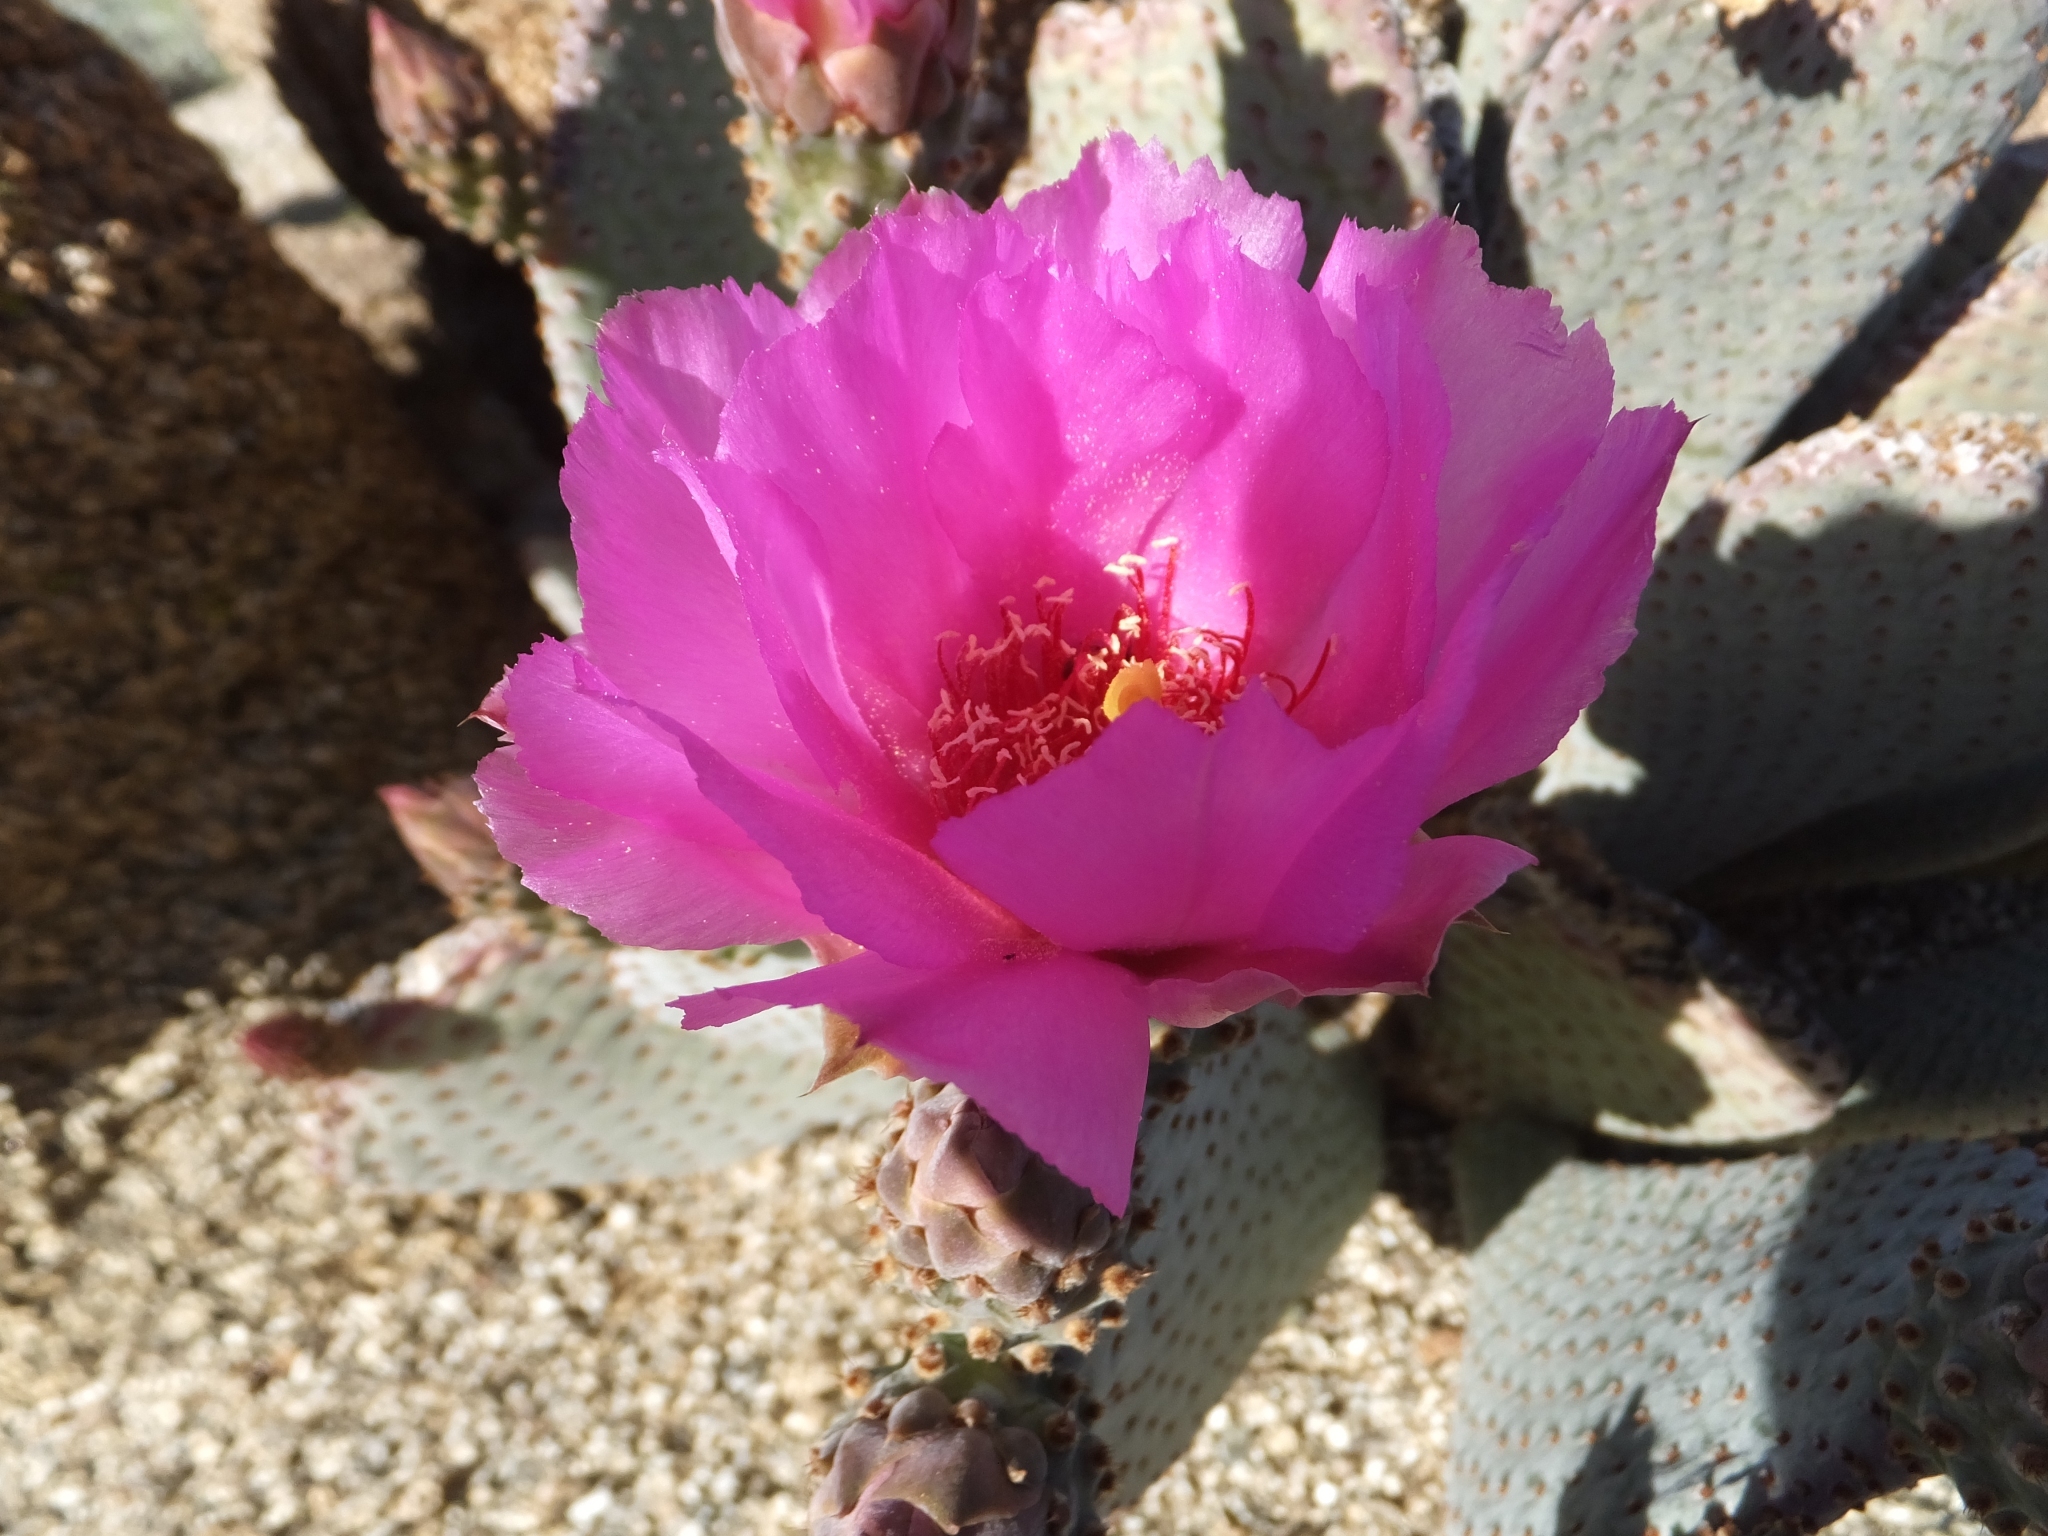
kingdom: Plantae
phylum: Tracheophyta
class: Magnoliopsida
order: Caryophyllales
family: Cactaceae
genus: Opuntia
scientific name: Opuntia basilaris
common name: Beavertail prickly-pear
